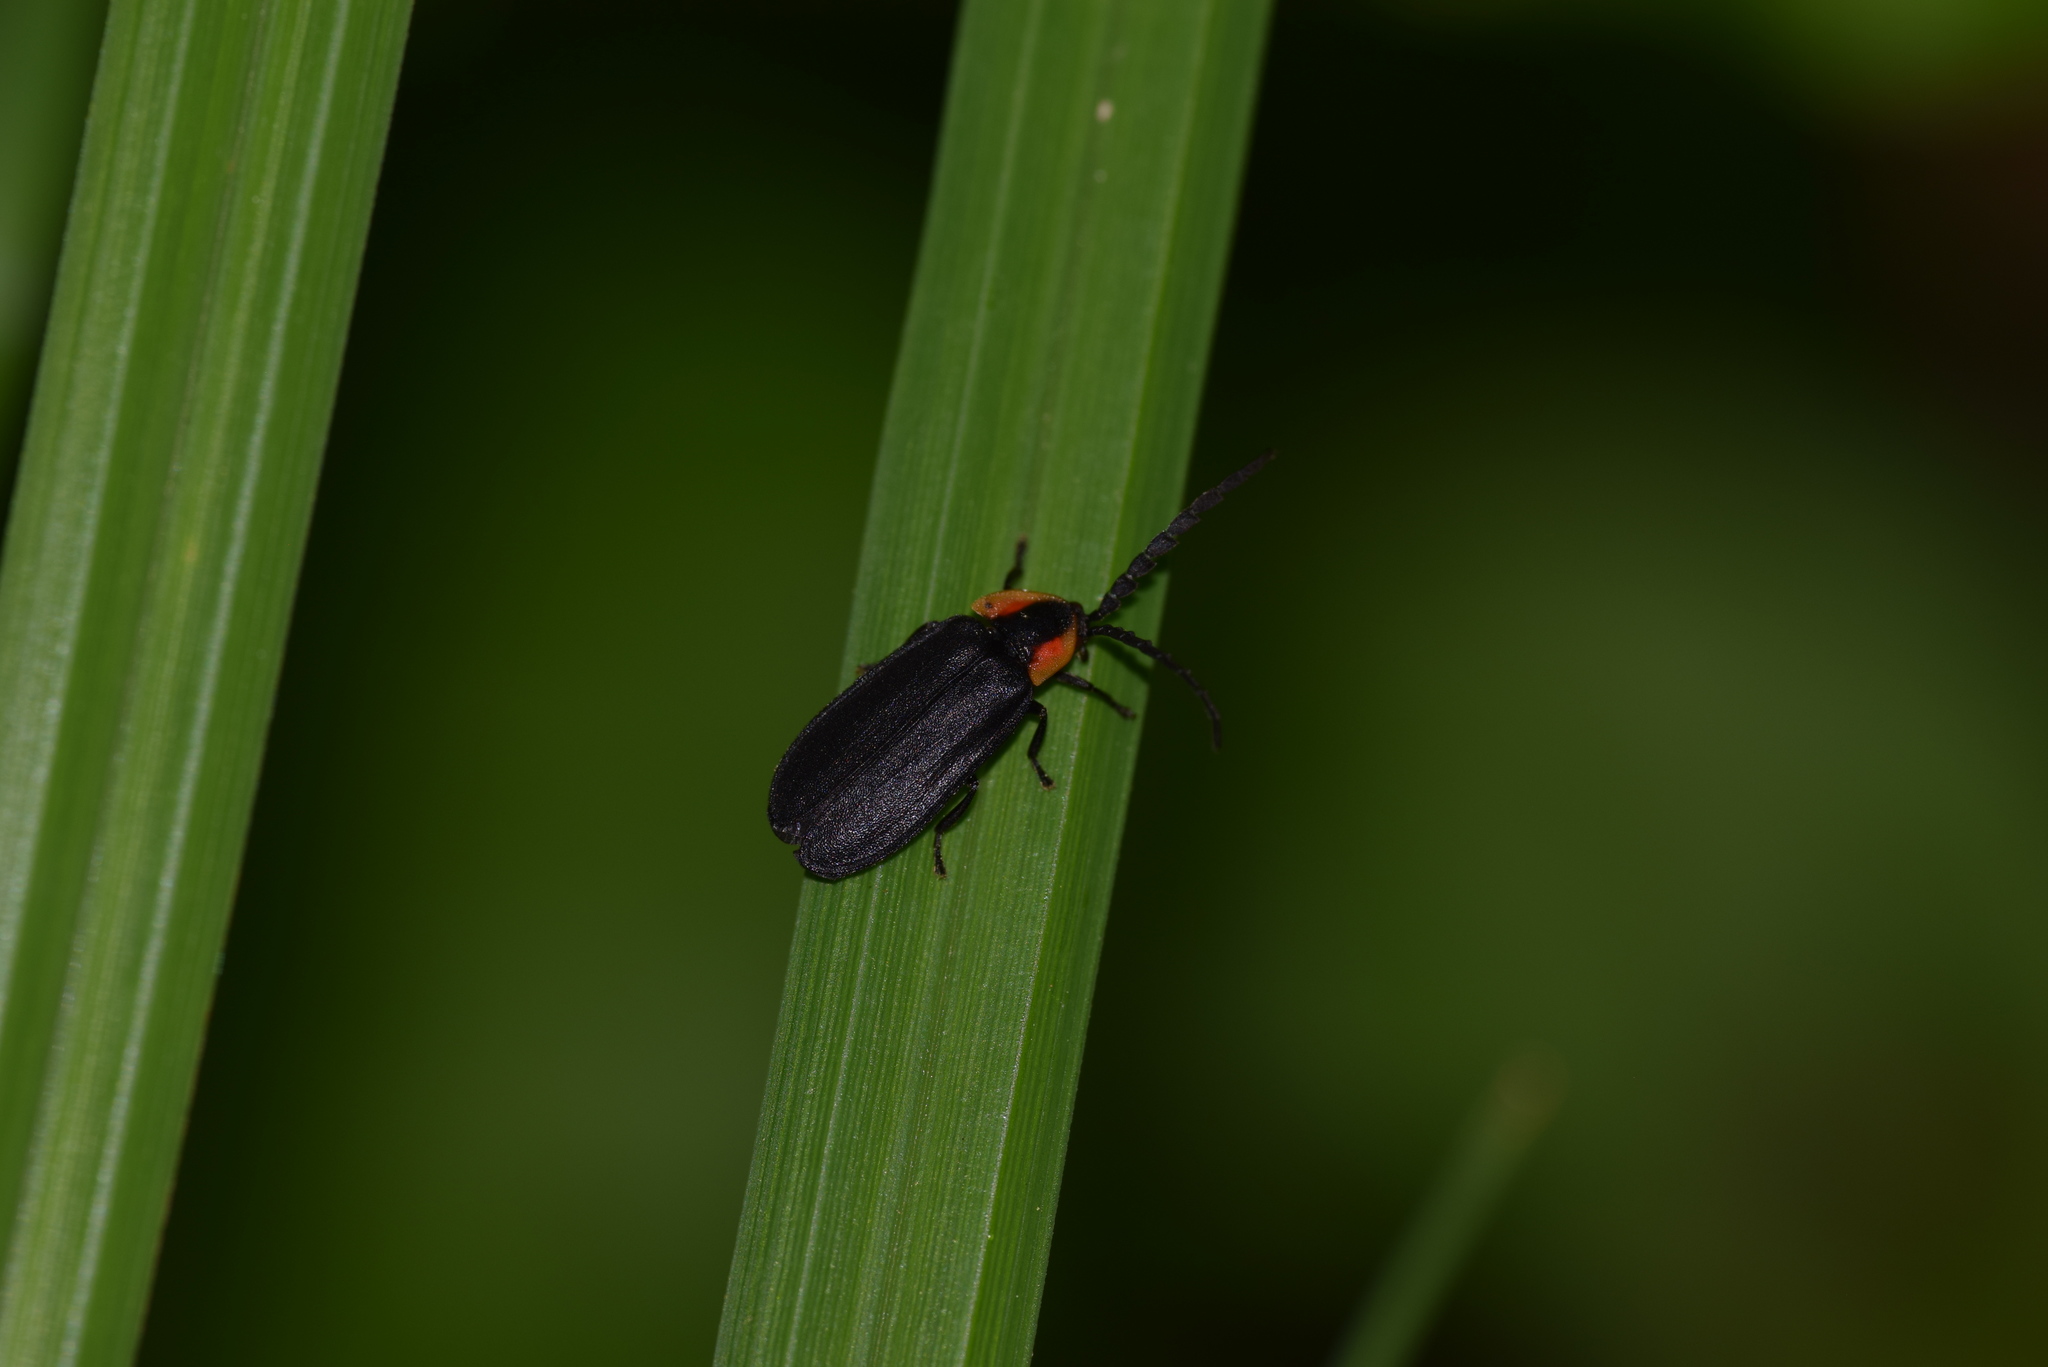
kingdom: Animalia
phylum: Arthropoda
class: Insecta
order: Coleoptera
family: Lampyridae
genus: Lucidota
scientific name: Lucidota atra
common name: Black firefly
